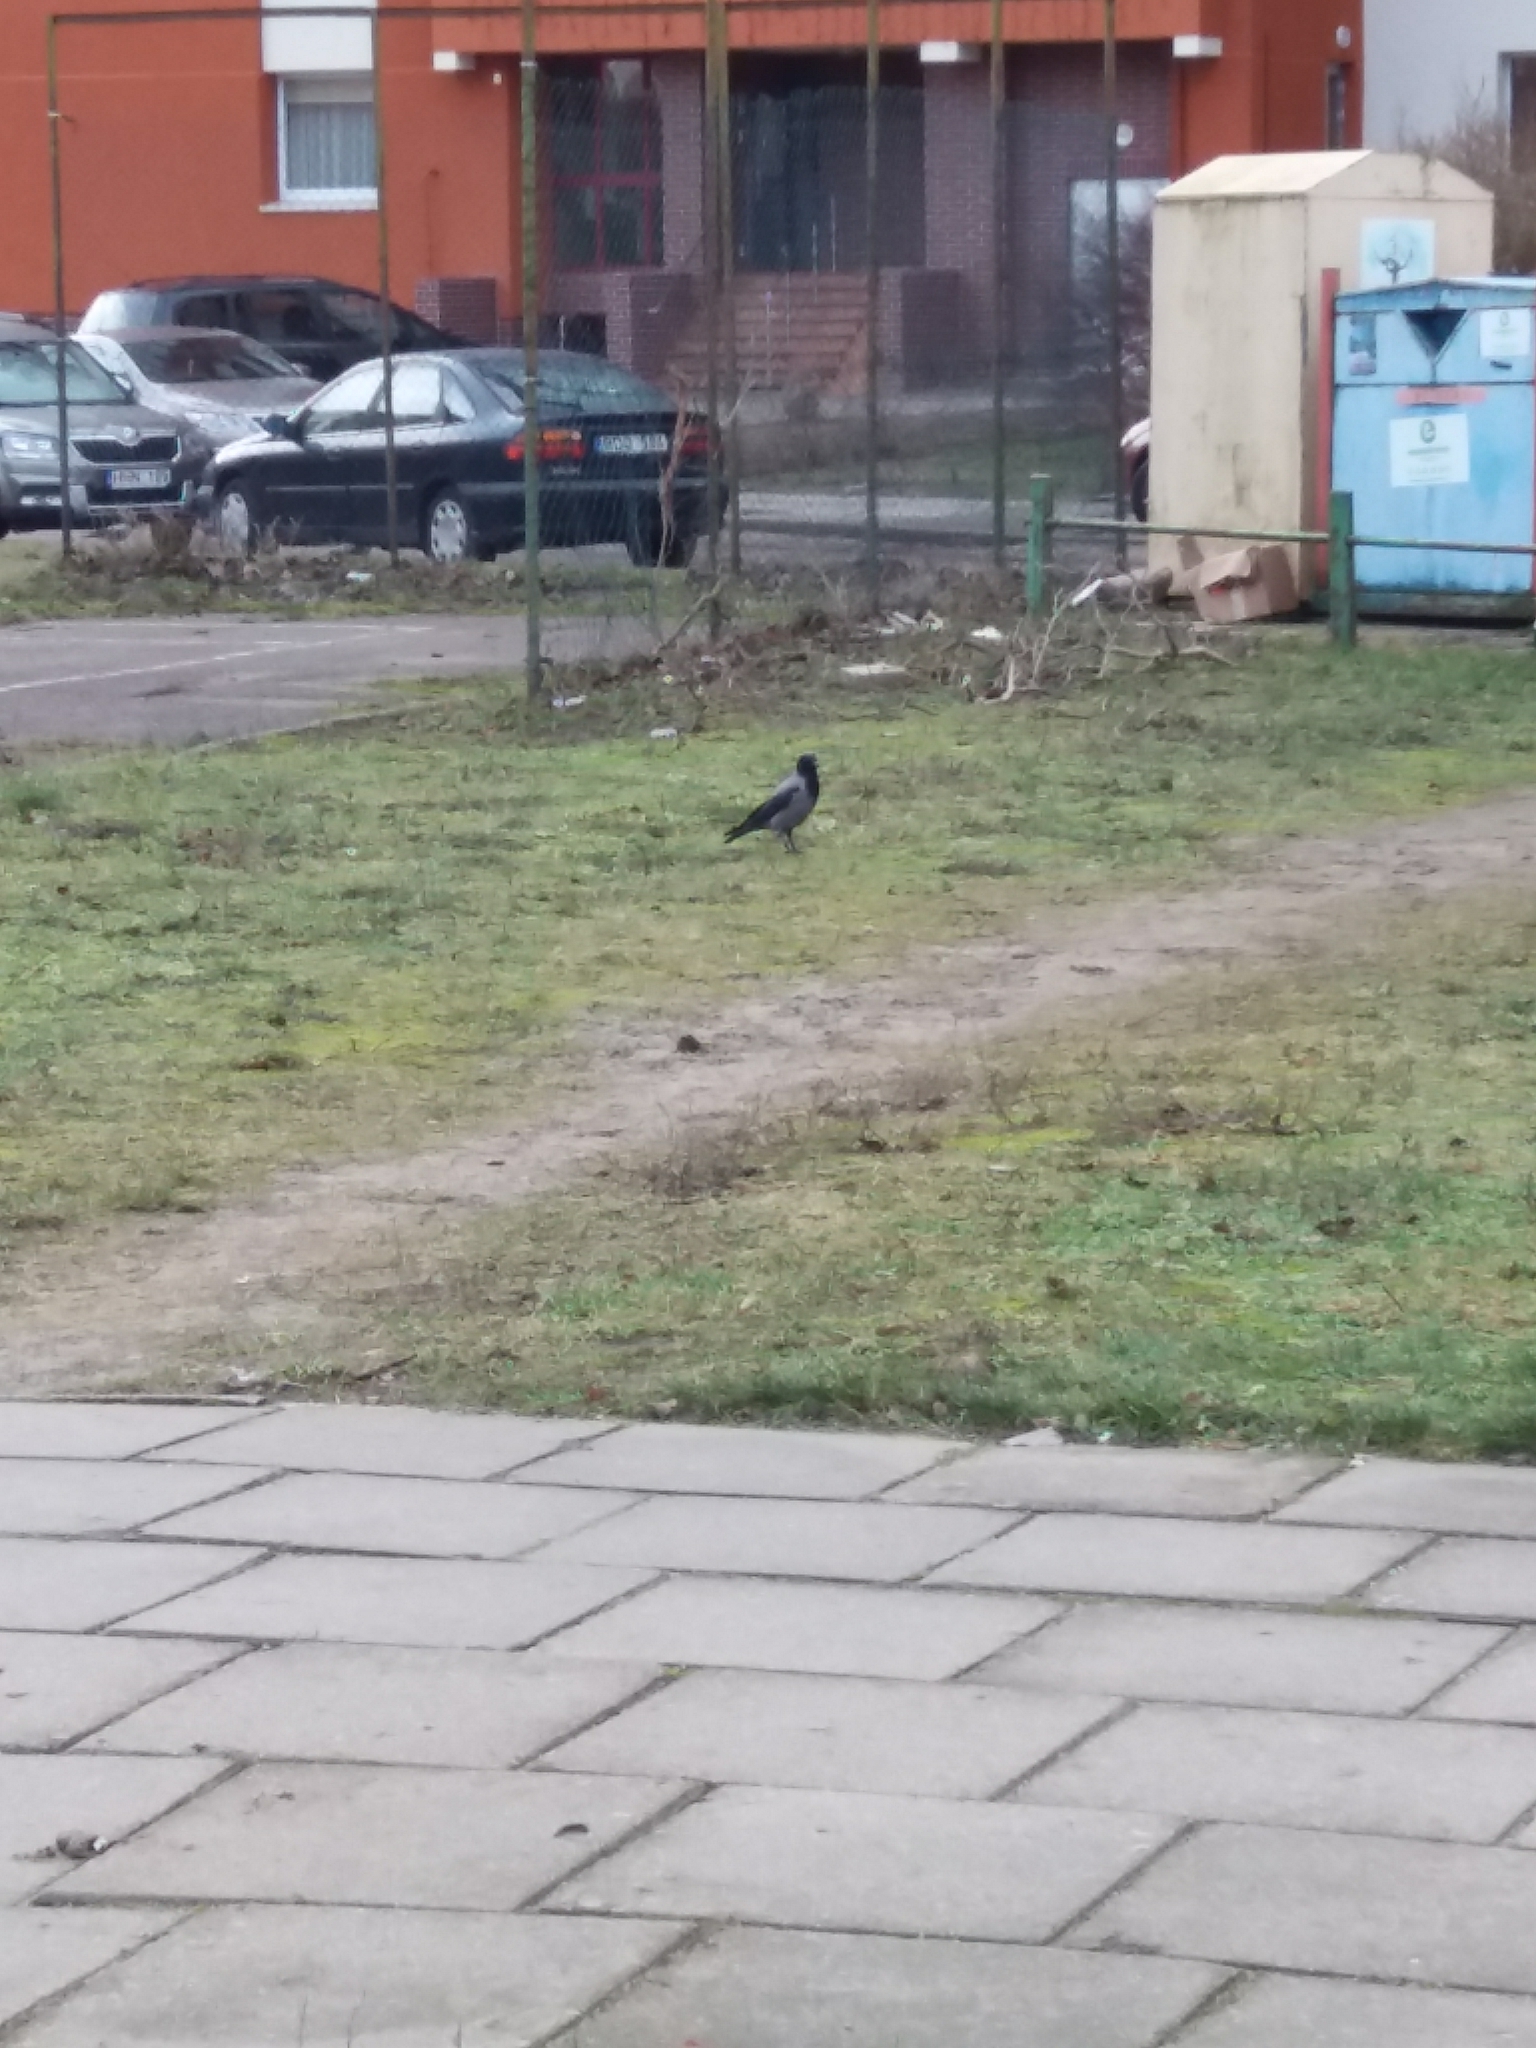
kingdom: Animalia
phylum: Chordata
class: Aves
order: Passeriformes
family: Corvidae
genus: Corvus
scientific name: Corvus cornix
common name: Hooded crow
